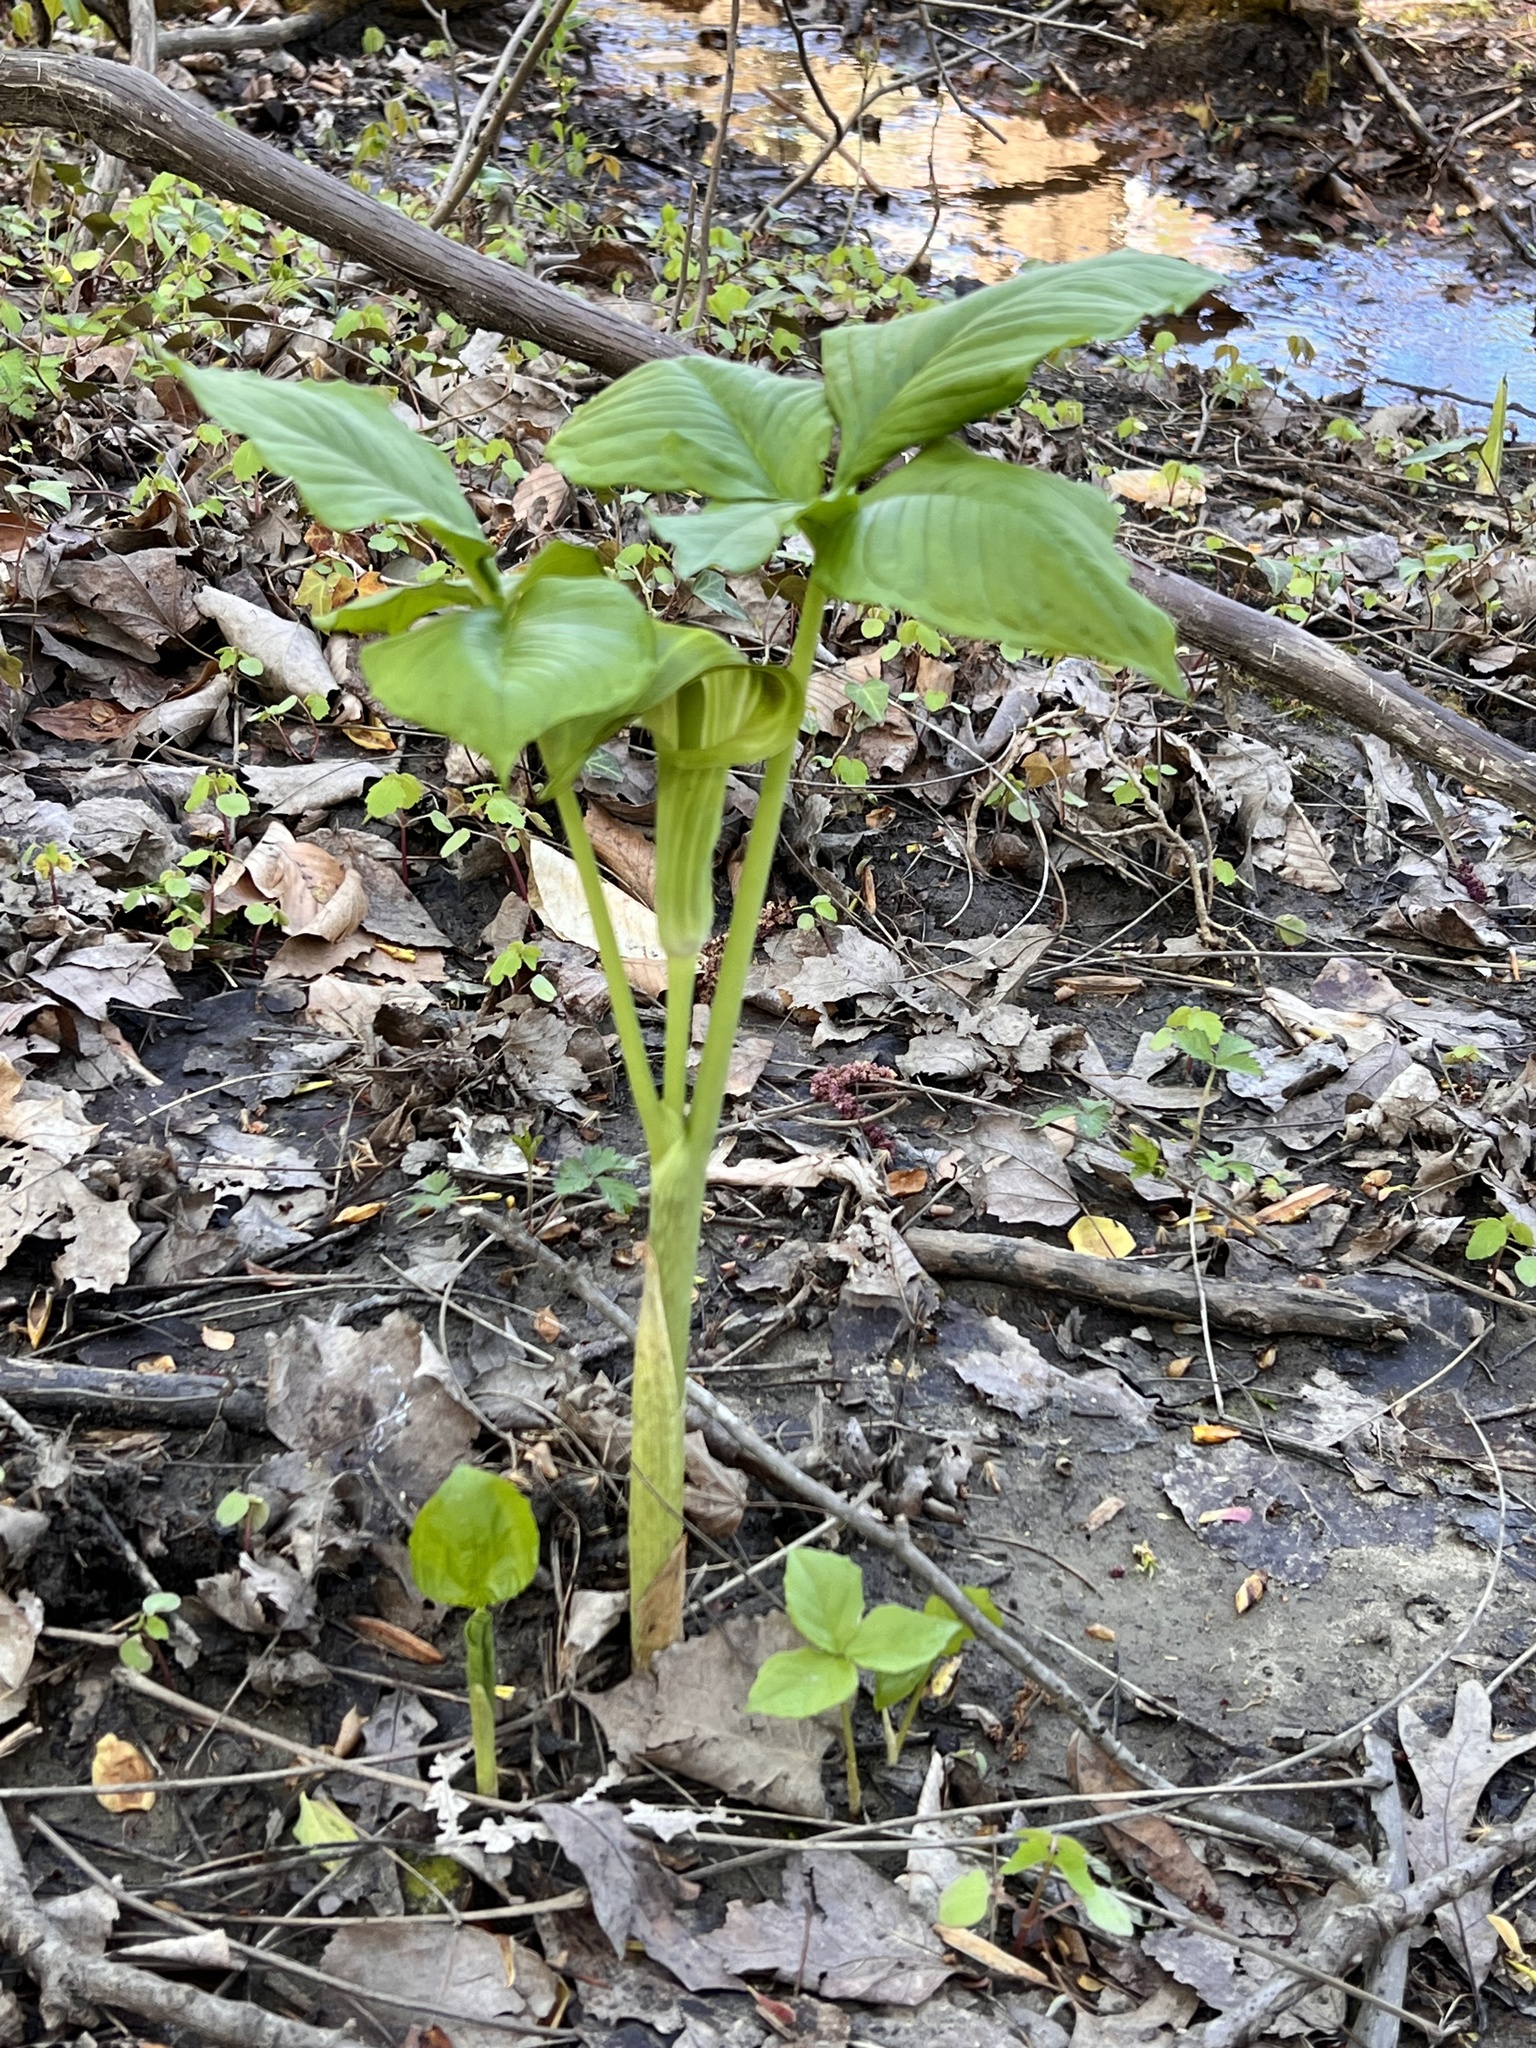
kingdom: Plantae
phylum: Tracheophyta
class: Liliopsida
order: Alismatales
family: Araceae
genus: Arisaema
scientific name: Arisaema triphyllum
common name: Jack-in-the-pulpit
